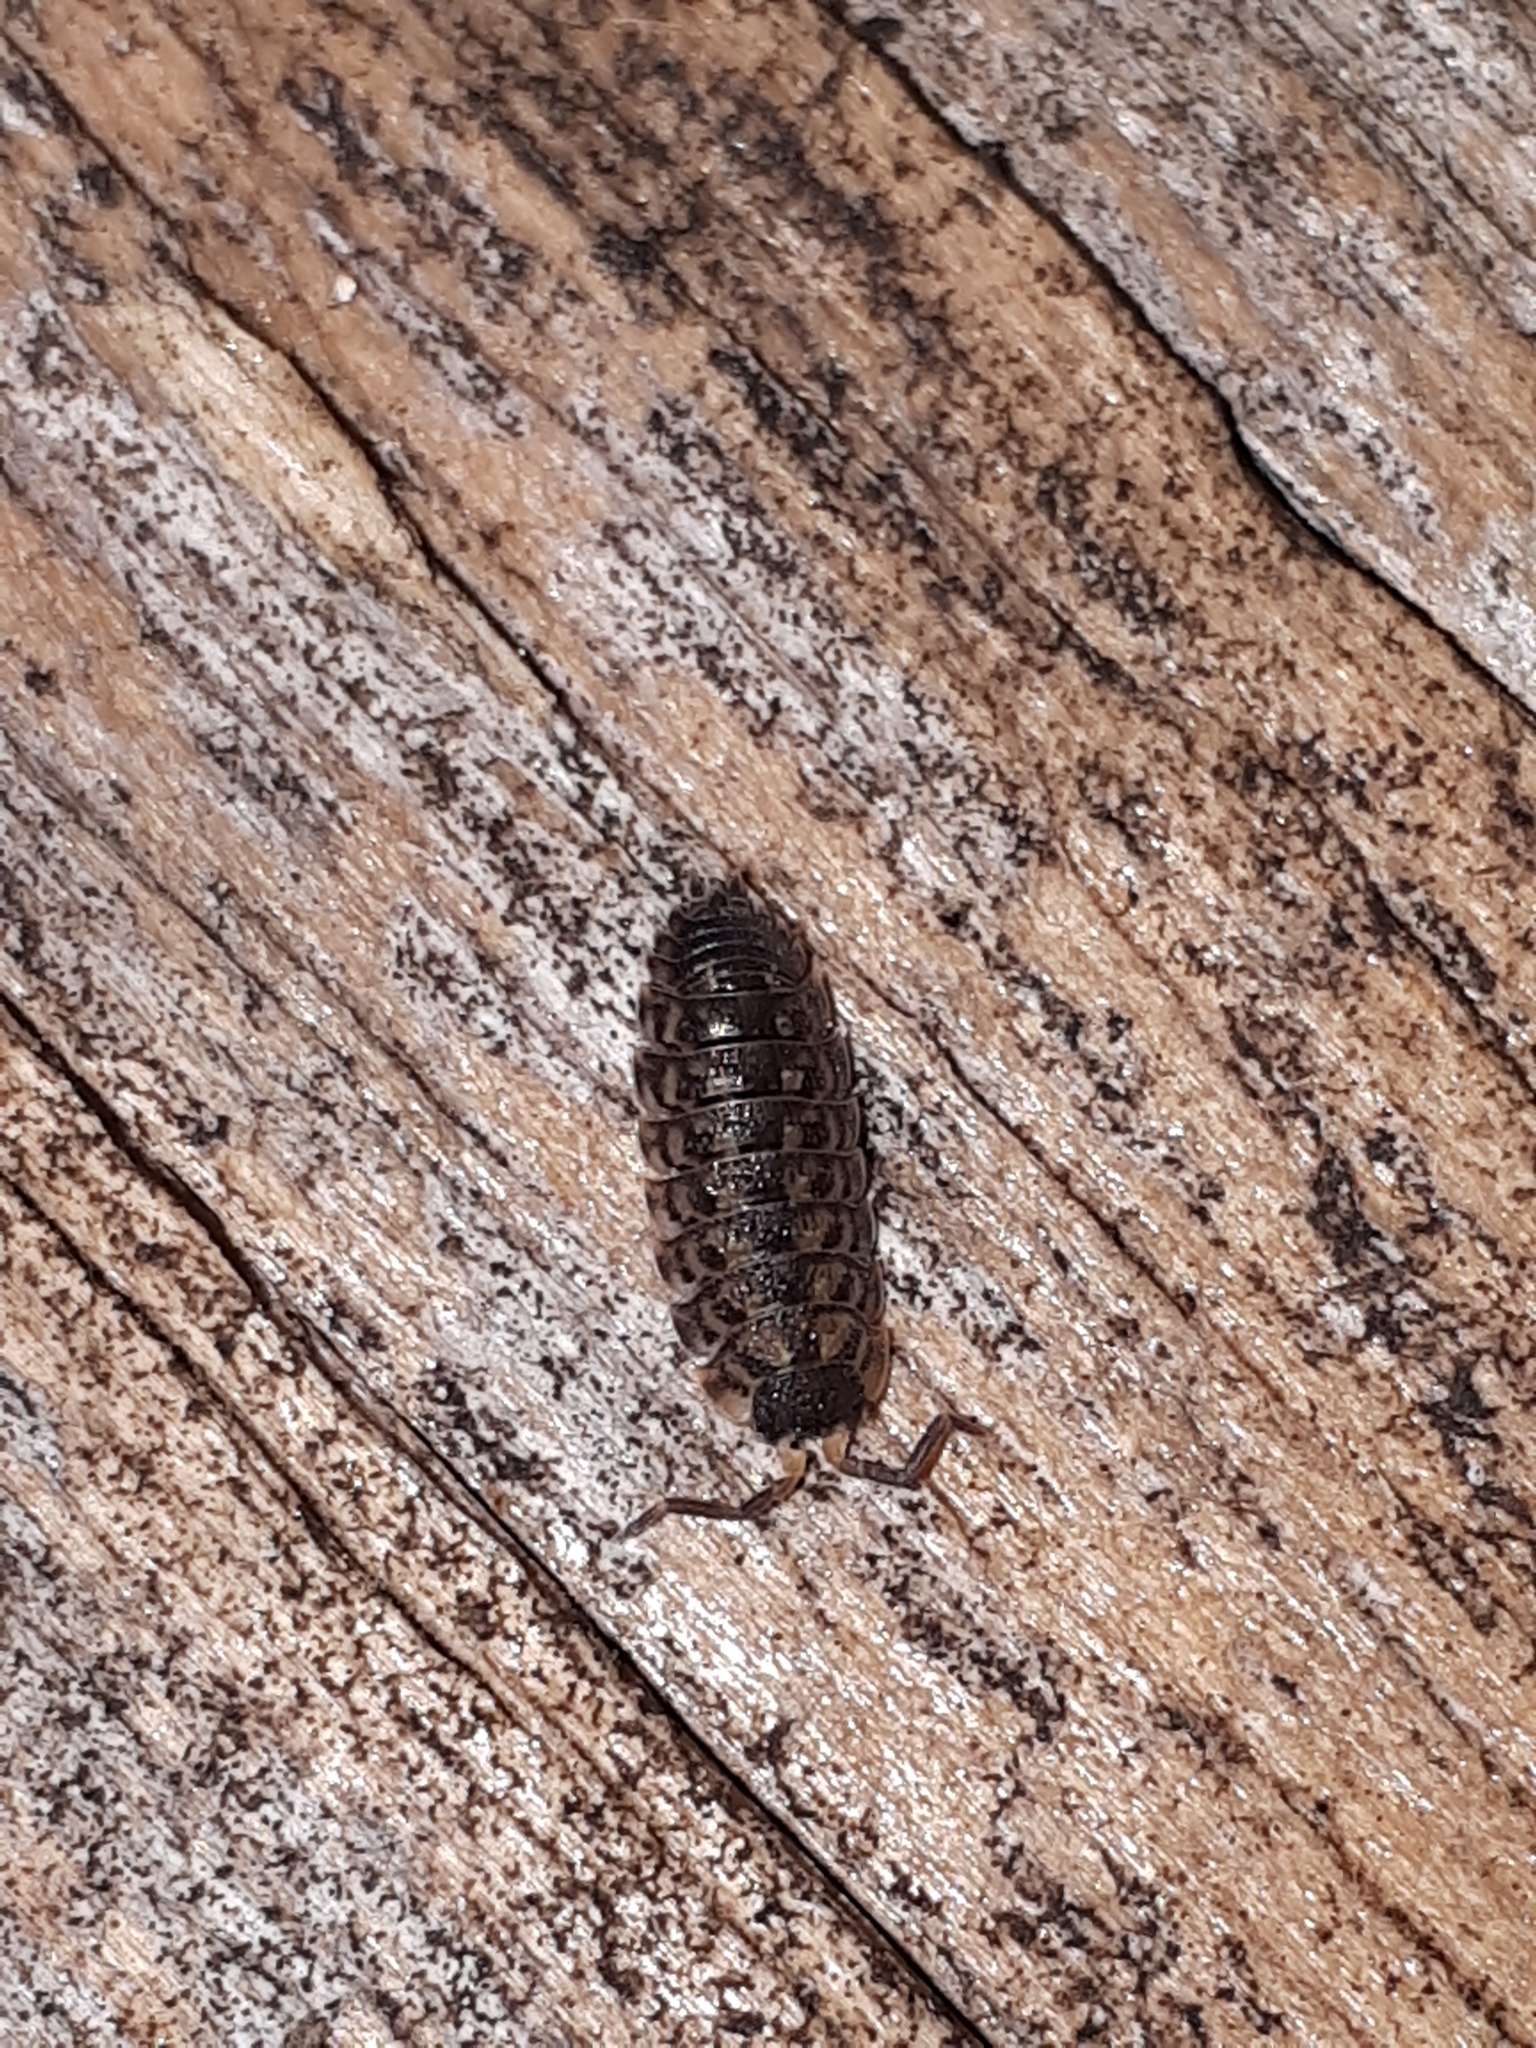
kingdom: Animalia
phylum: Arthropoda
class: Malacostraca
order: Isopoda
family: Porcellionidae
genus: Porcellio
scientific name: Porcellio spinicornis
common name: Painted woodlouse
